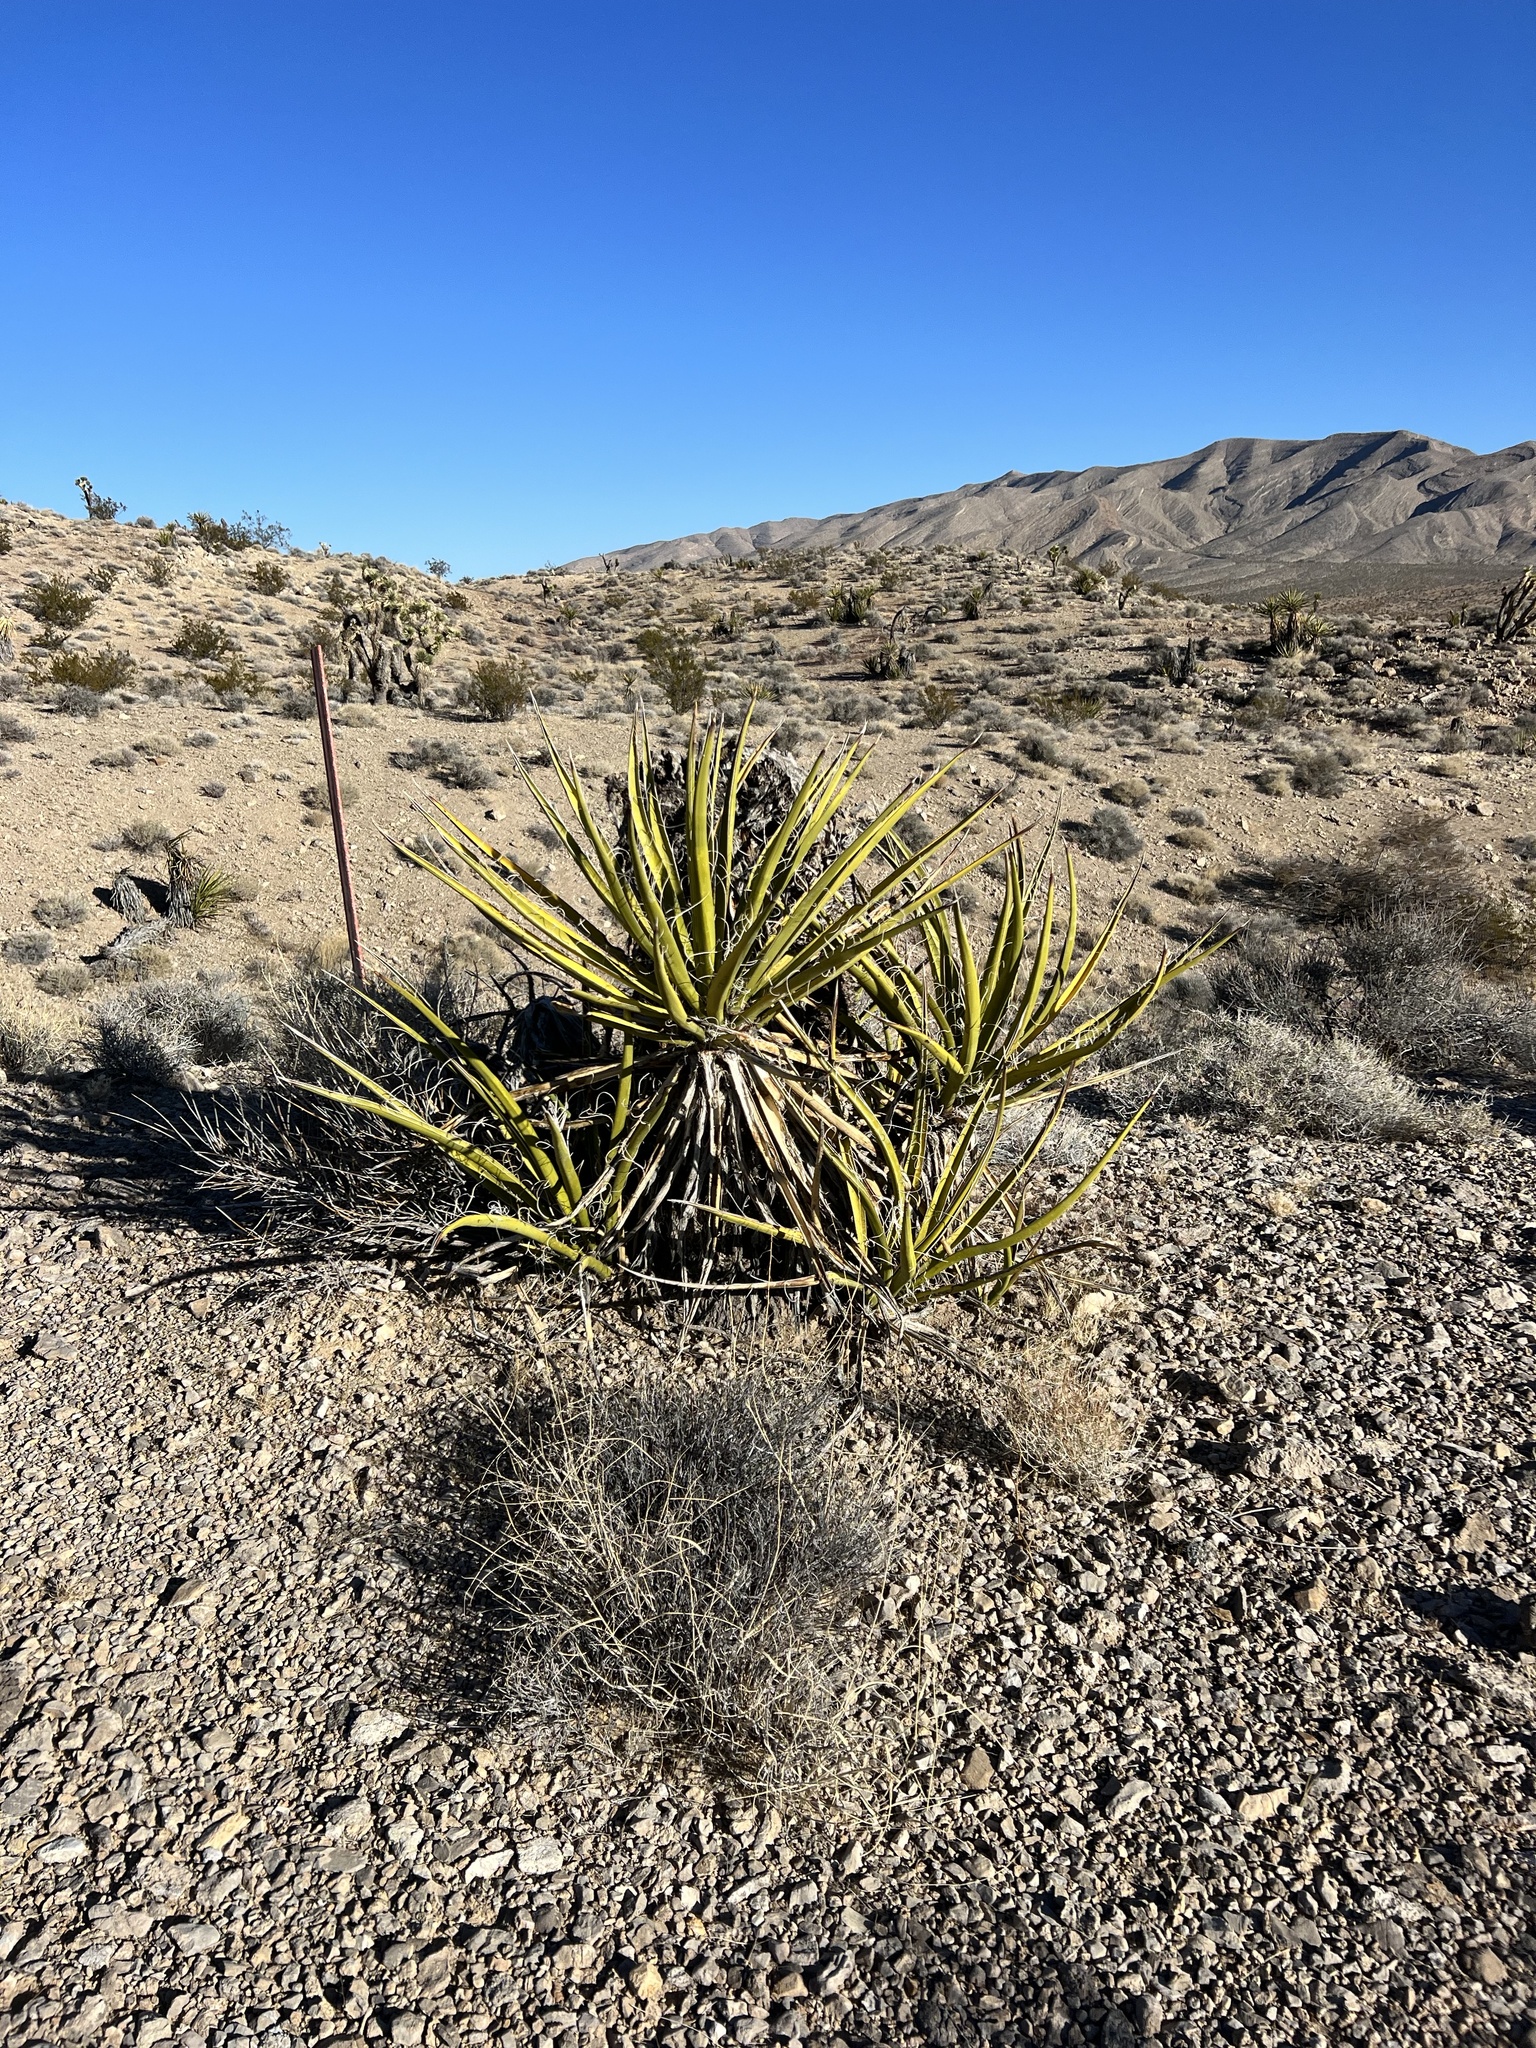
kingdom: Plantae
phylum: Tracheophyta
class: Liliopsida
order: Asparagales
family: Asparagaceae
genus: Yucca
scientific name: Yucca schidigera
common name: Mojave yucca
